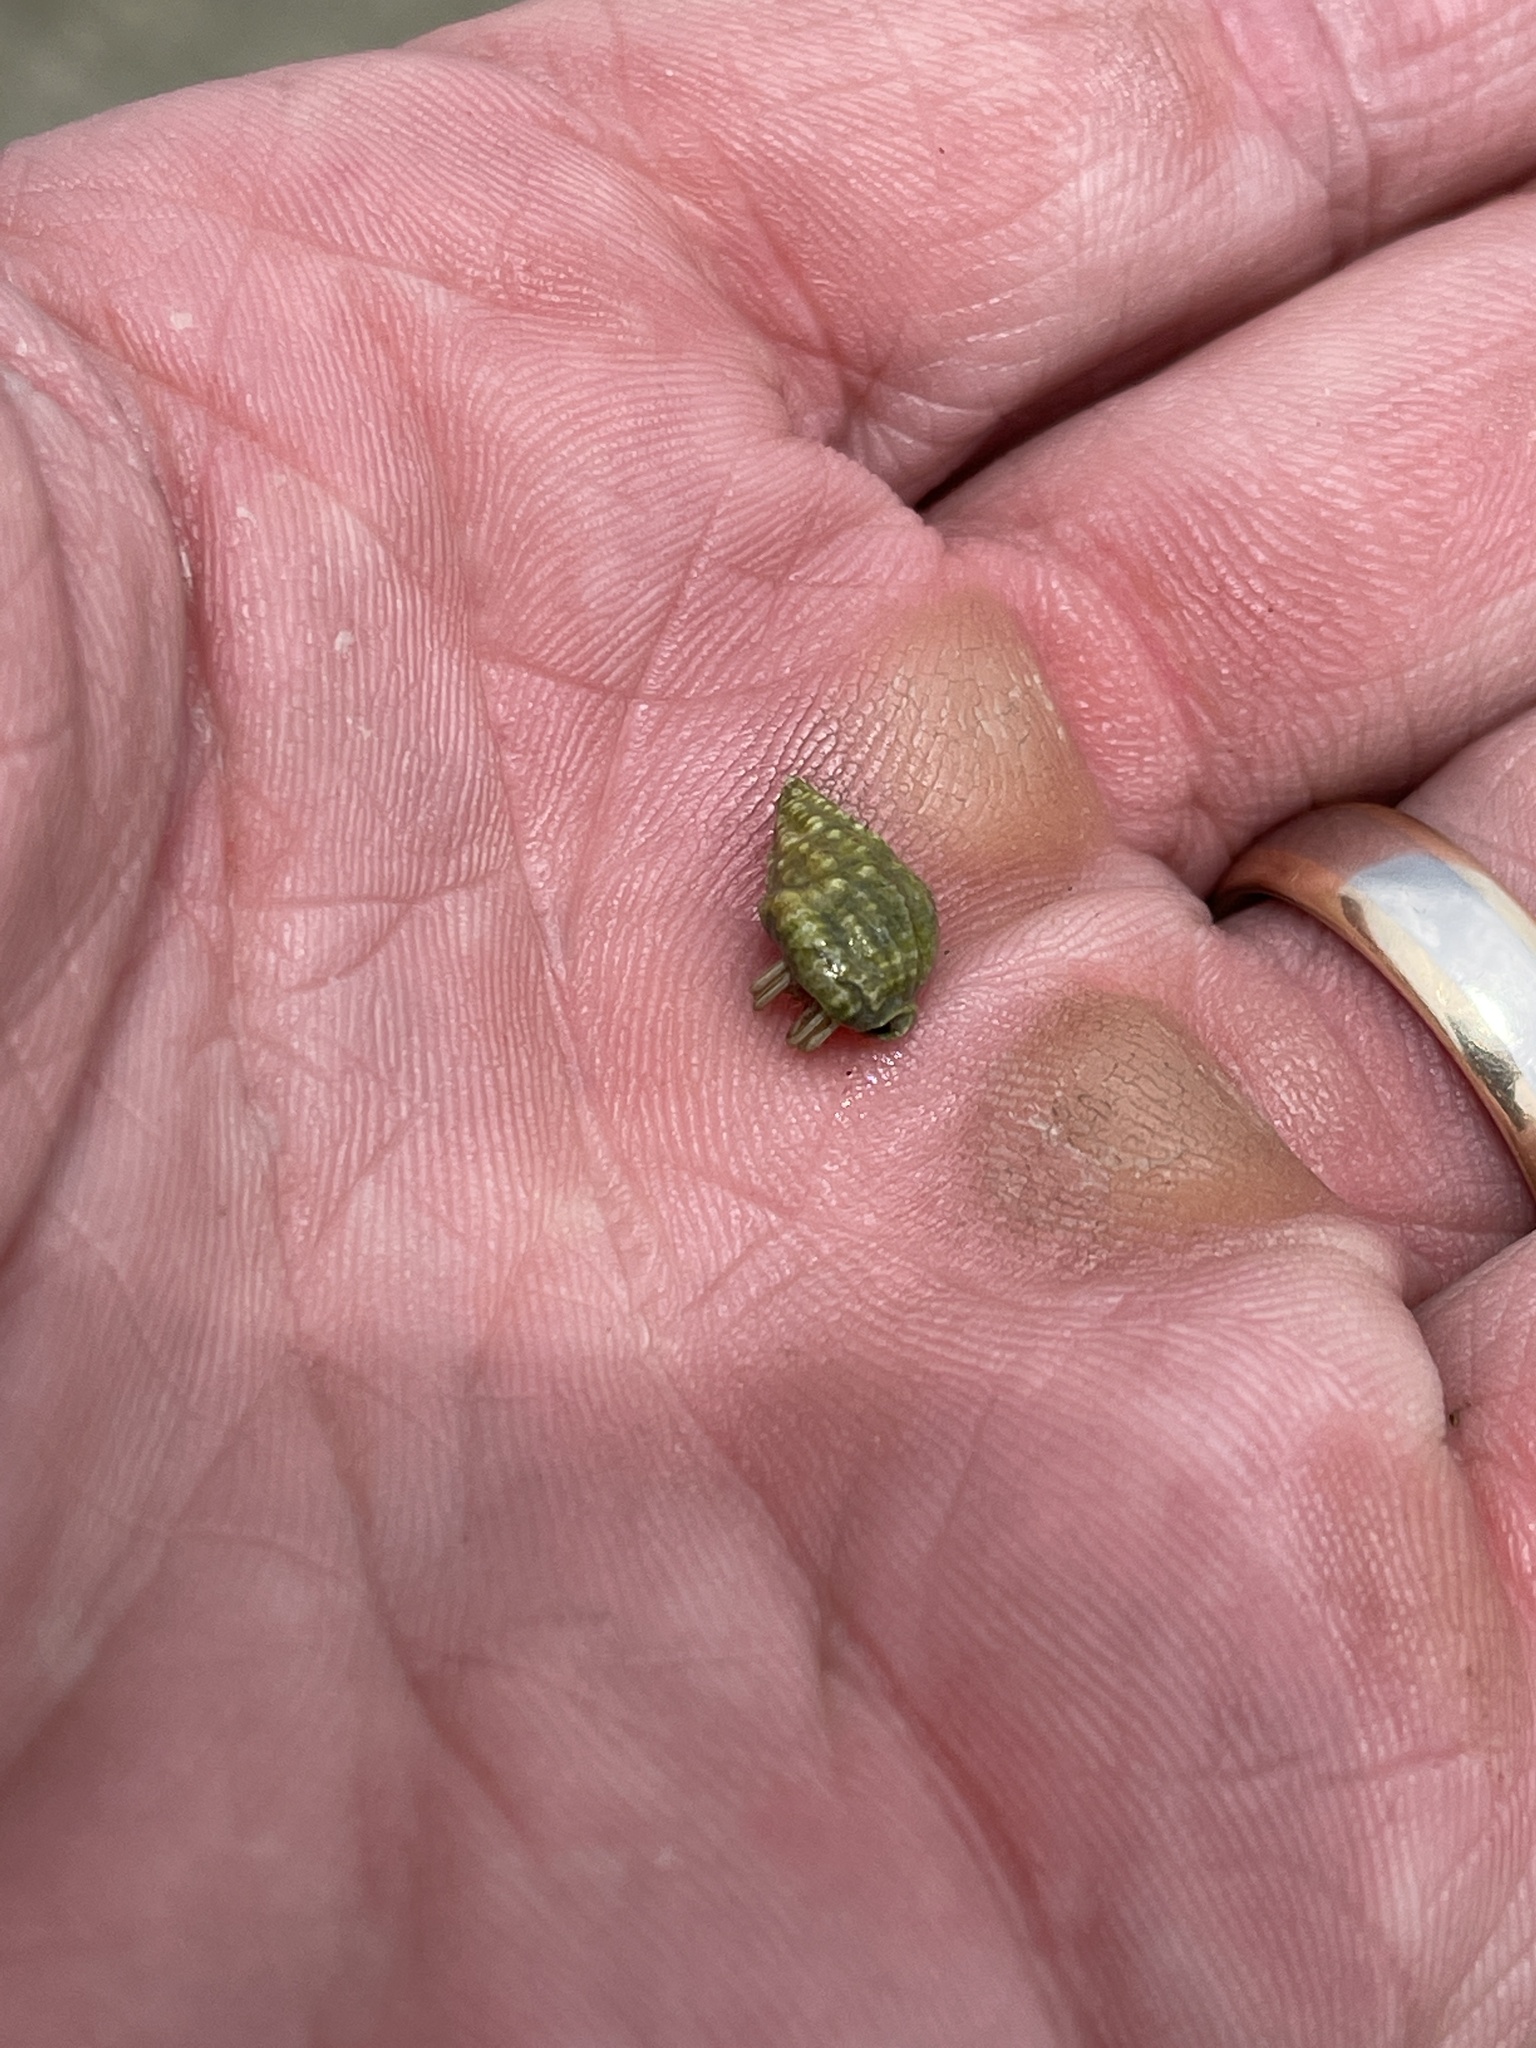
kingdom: Animalia
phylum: Arthropoda
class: Malacostraca
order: Decapoda
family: Diogenidae
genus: Clibanarius
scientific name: Clibanarius vittatus
